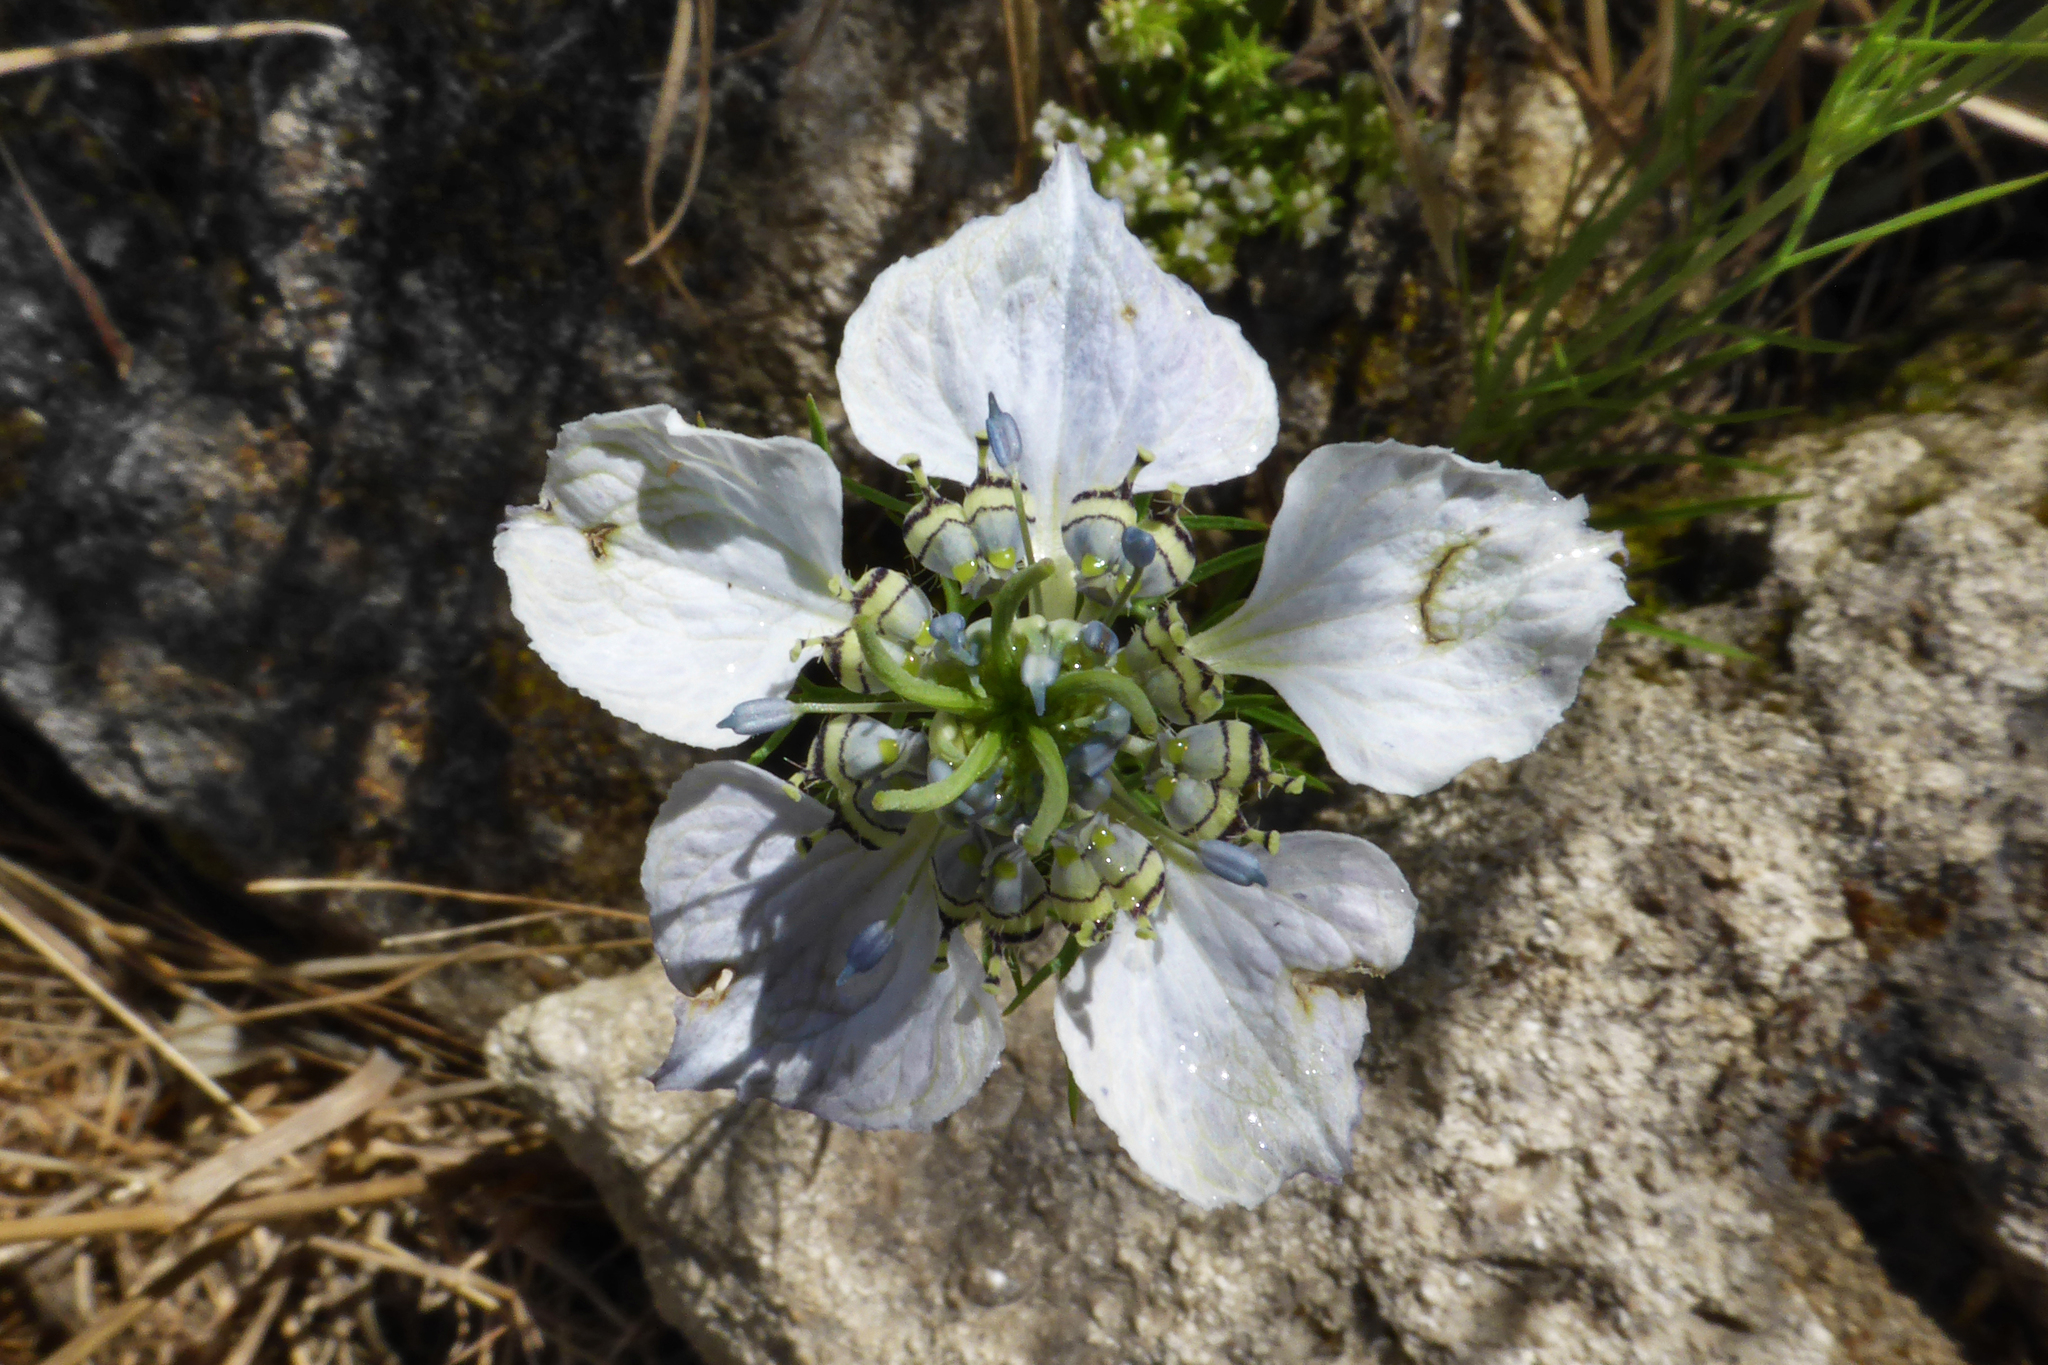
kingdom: Plantae
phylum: Tracheophyta
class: Magnoliopsida
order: Ranunculales
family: Ranunculaceae
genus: Nigella
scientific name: Nigella arvensis
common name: Wild fennel-flower
